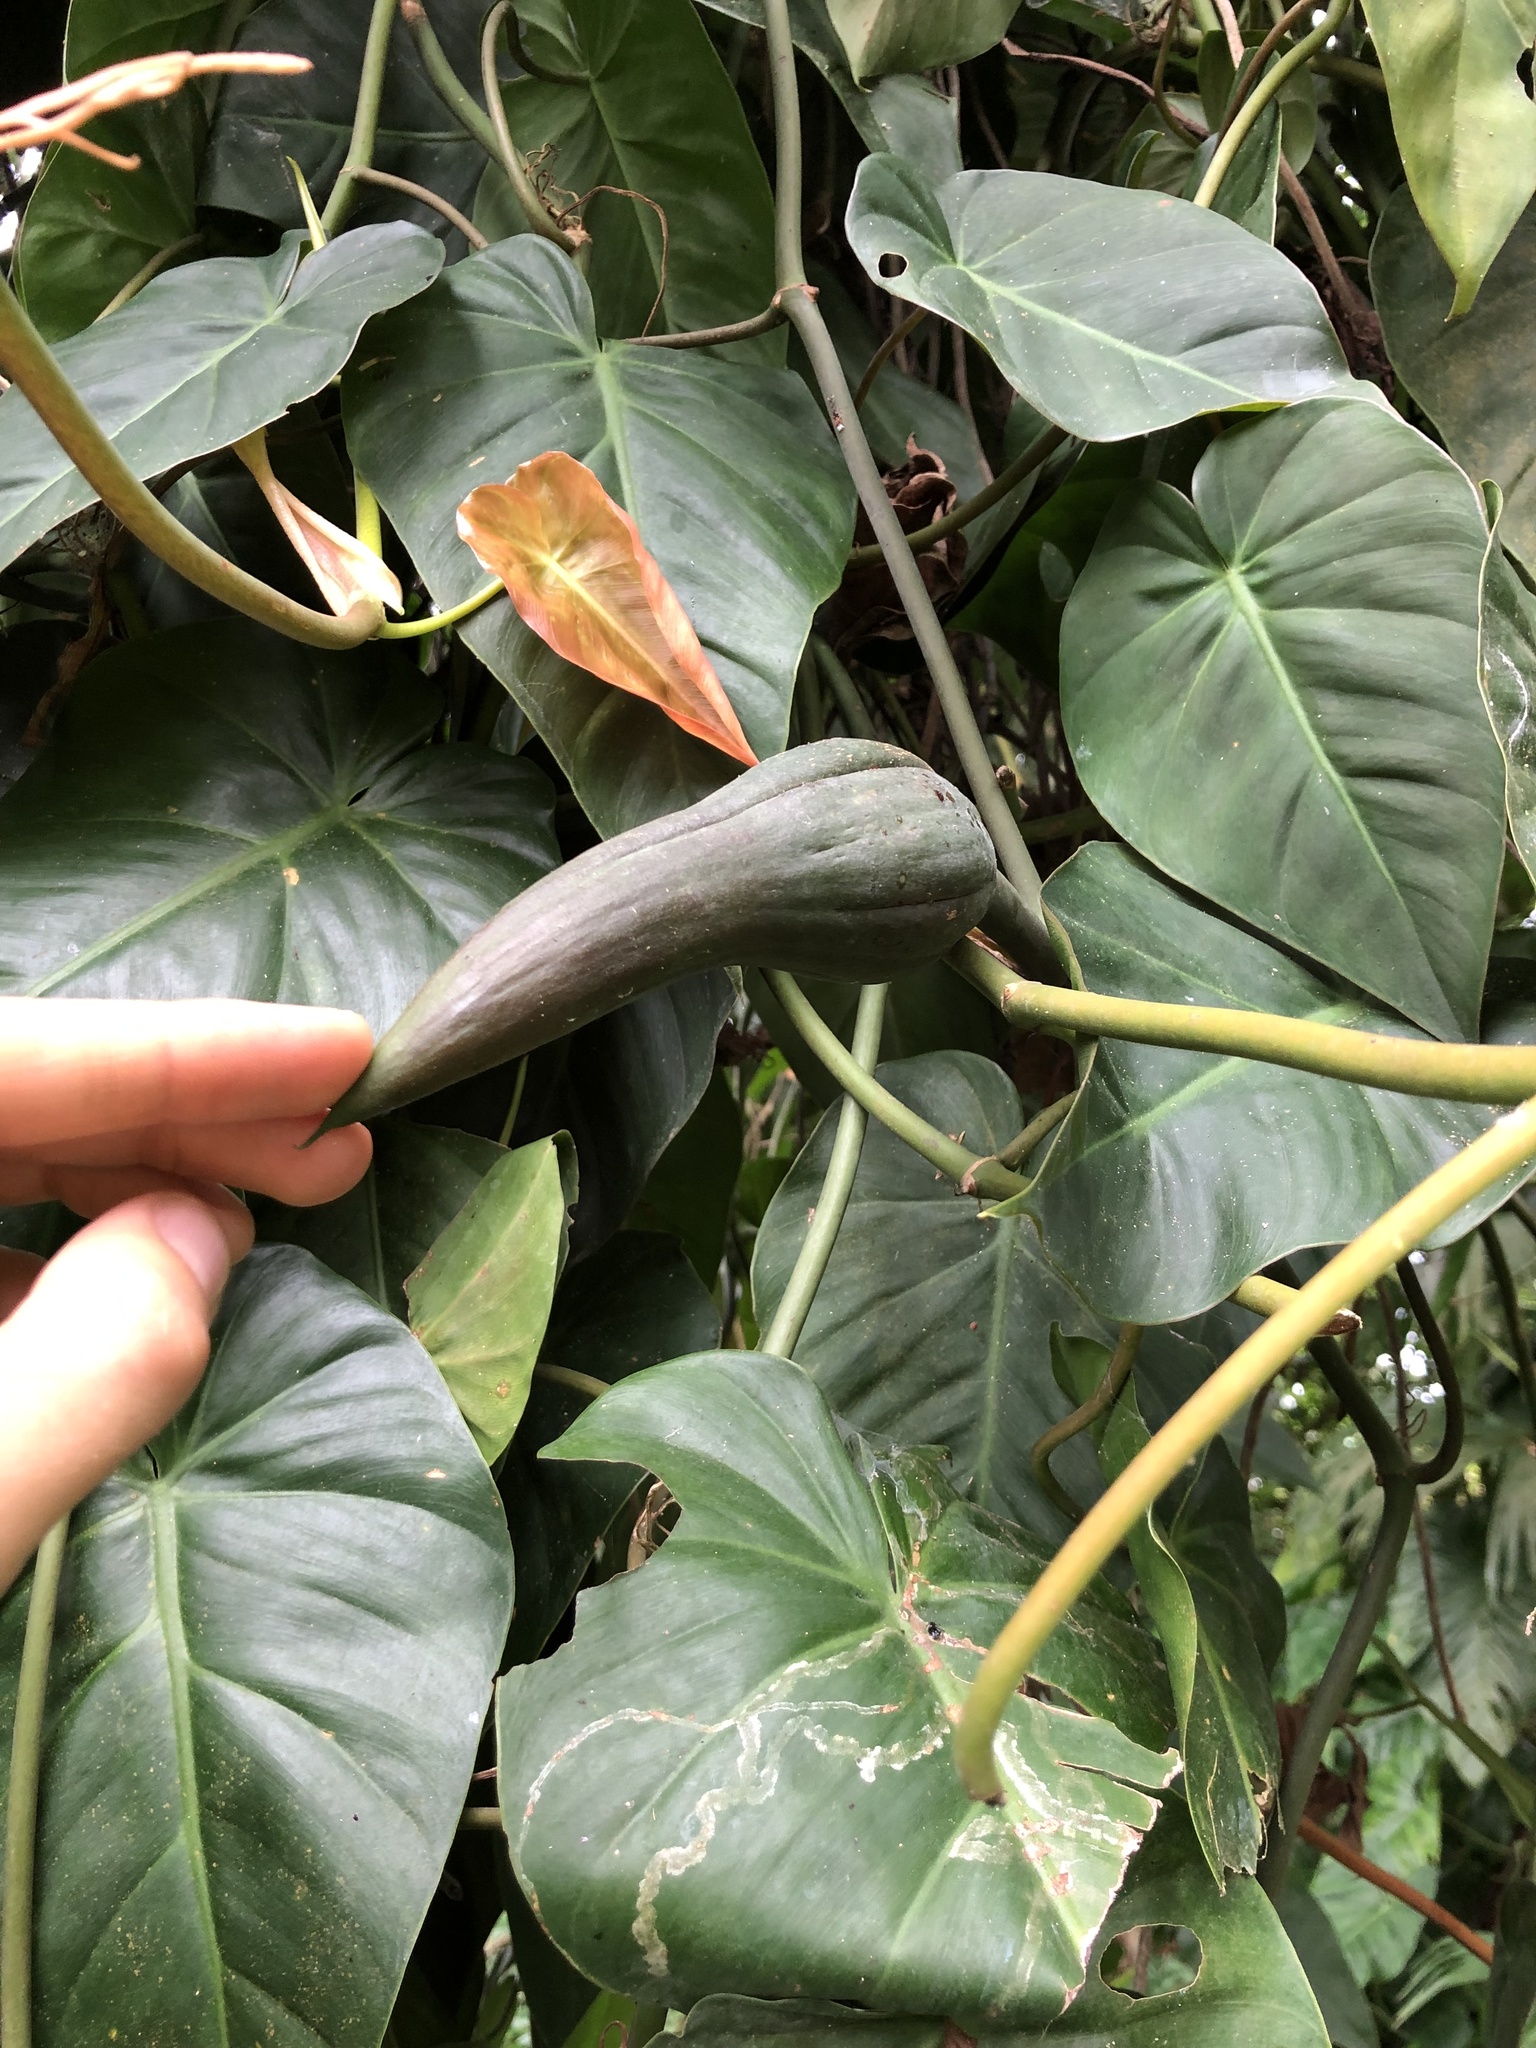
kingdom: Plantae
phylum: Tracheophyta
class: Liliopsida
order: Alismatales
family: Araceae
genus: Philodendron
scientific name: Philodendron hederaceum
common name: Vilevine
